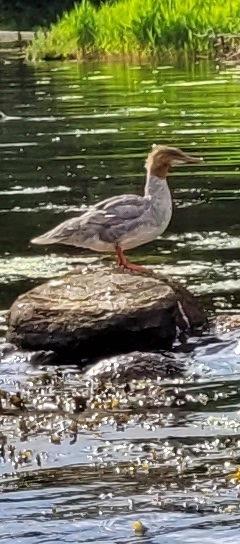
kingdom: Animalia
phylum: Chordata
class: Aves
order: Anseriformes
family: Anatidae
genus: Mergus
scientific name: Mergus merganser
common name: Common merganser
